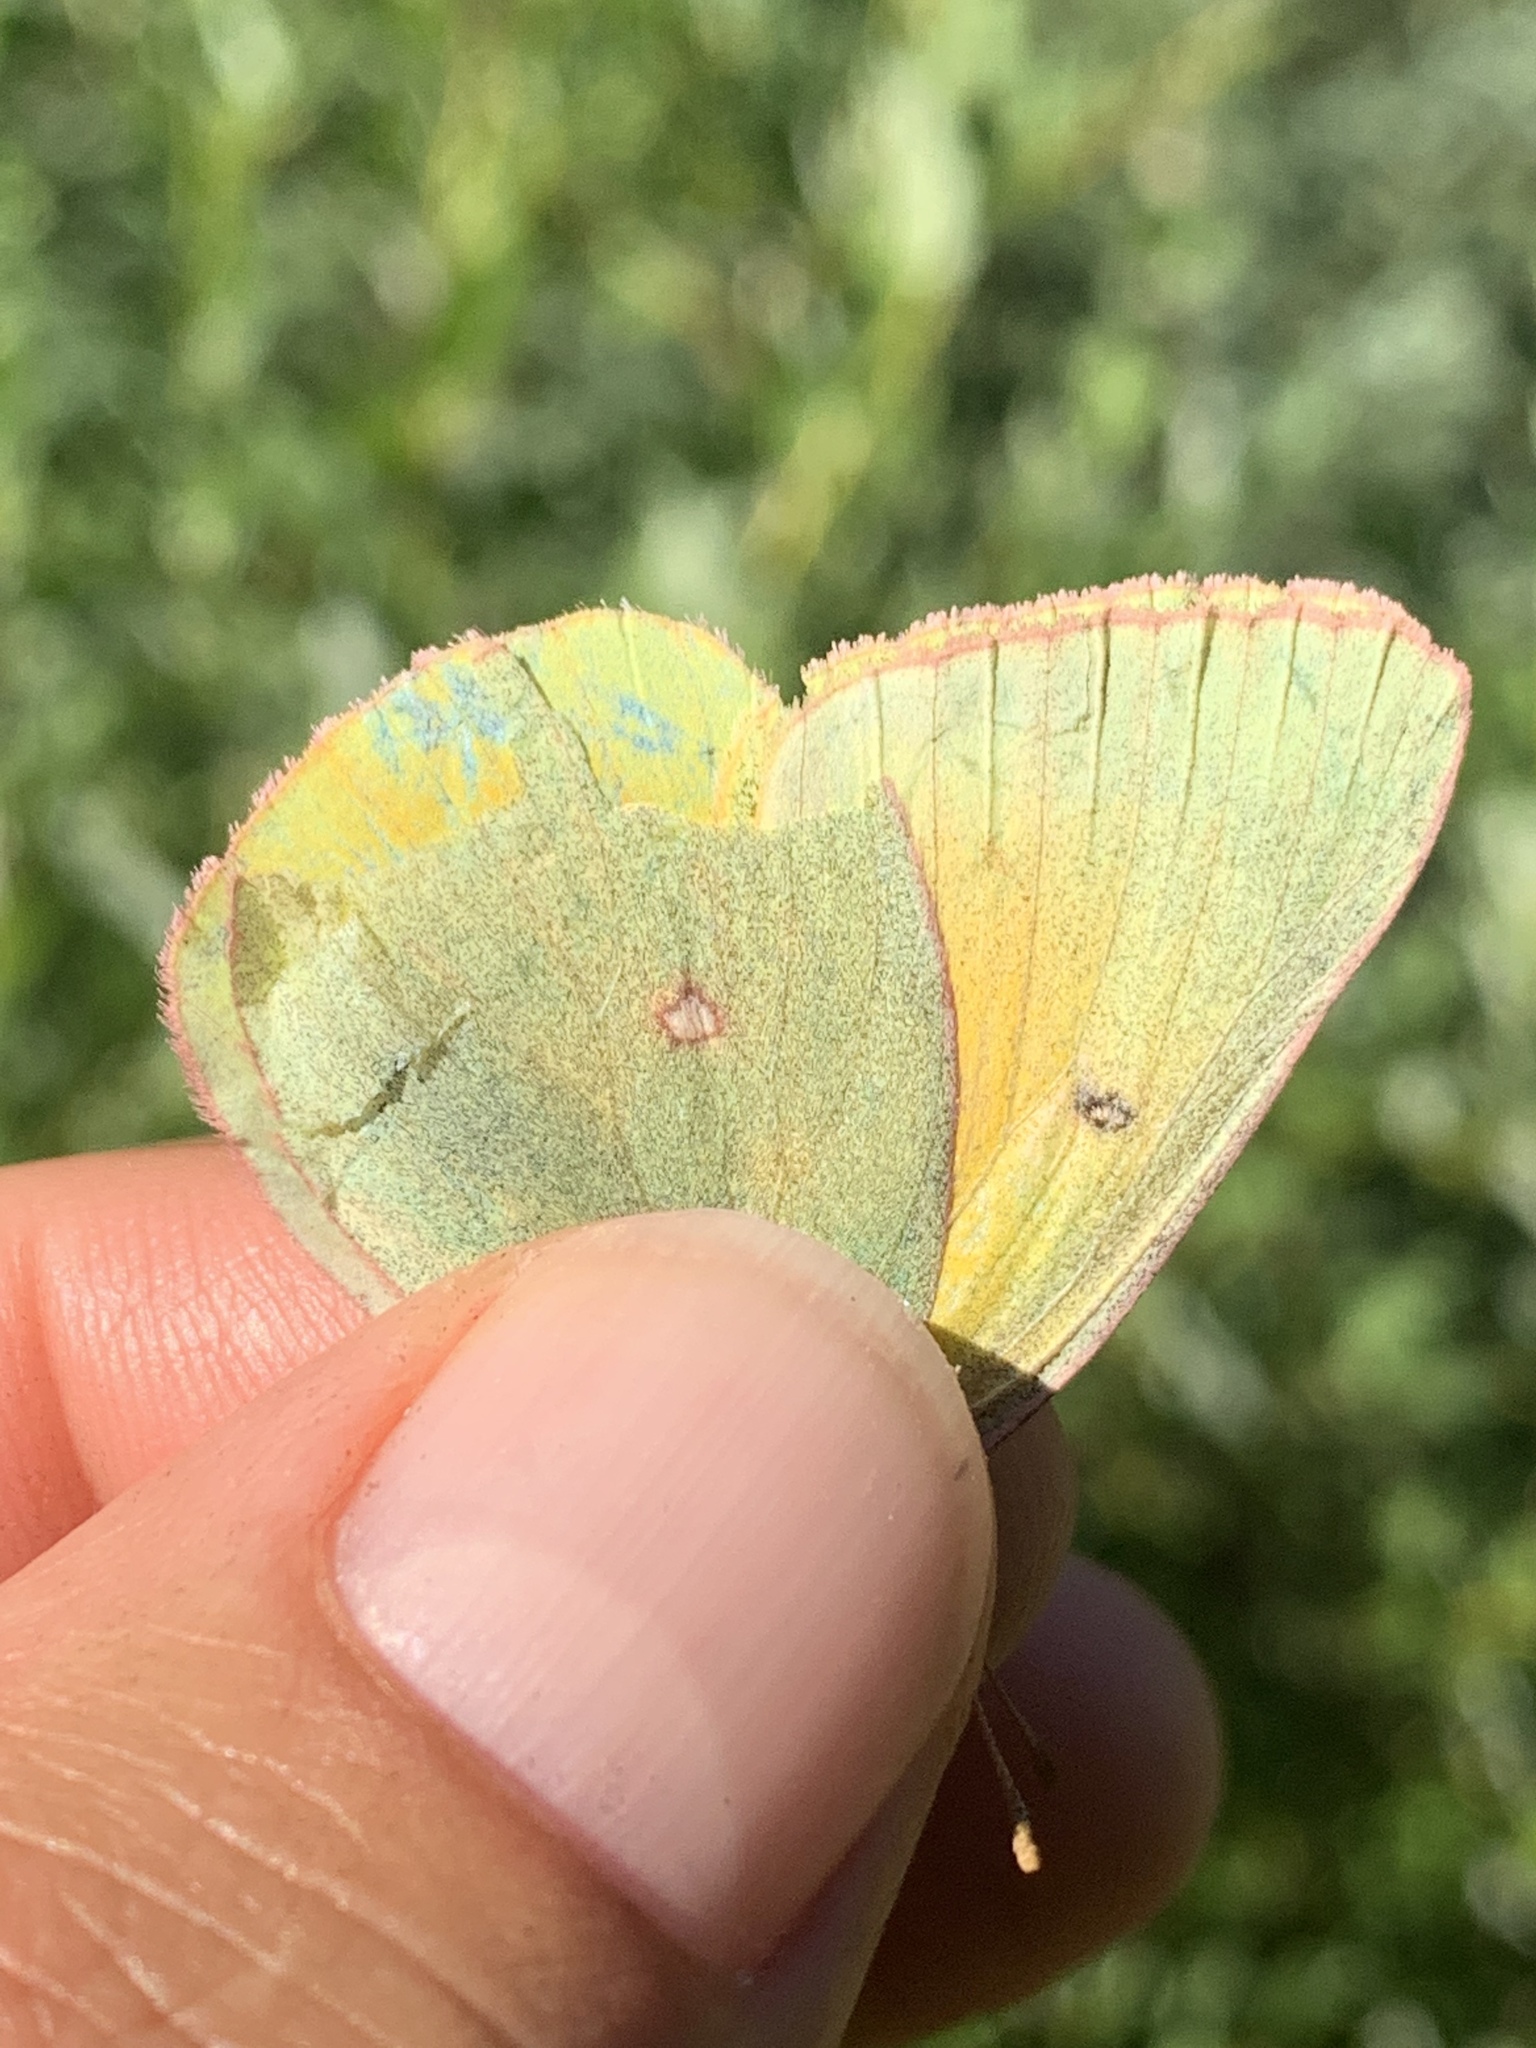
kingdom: Animalia
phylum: Arthropoda
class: Insecta
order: Lepidoptera
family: Pieridae
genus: Colias
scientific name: Colias christina
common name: Christina sulphur
